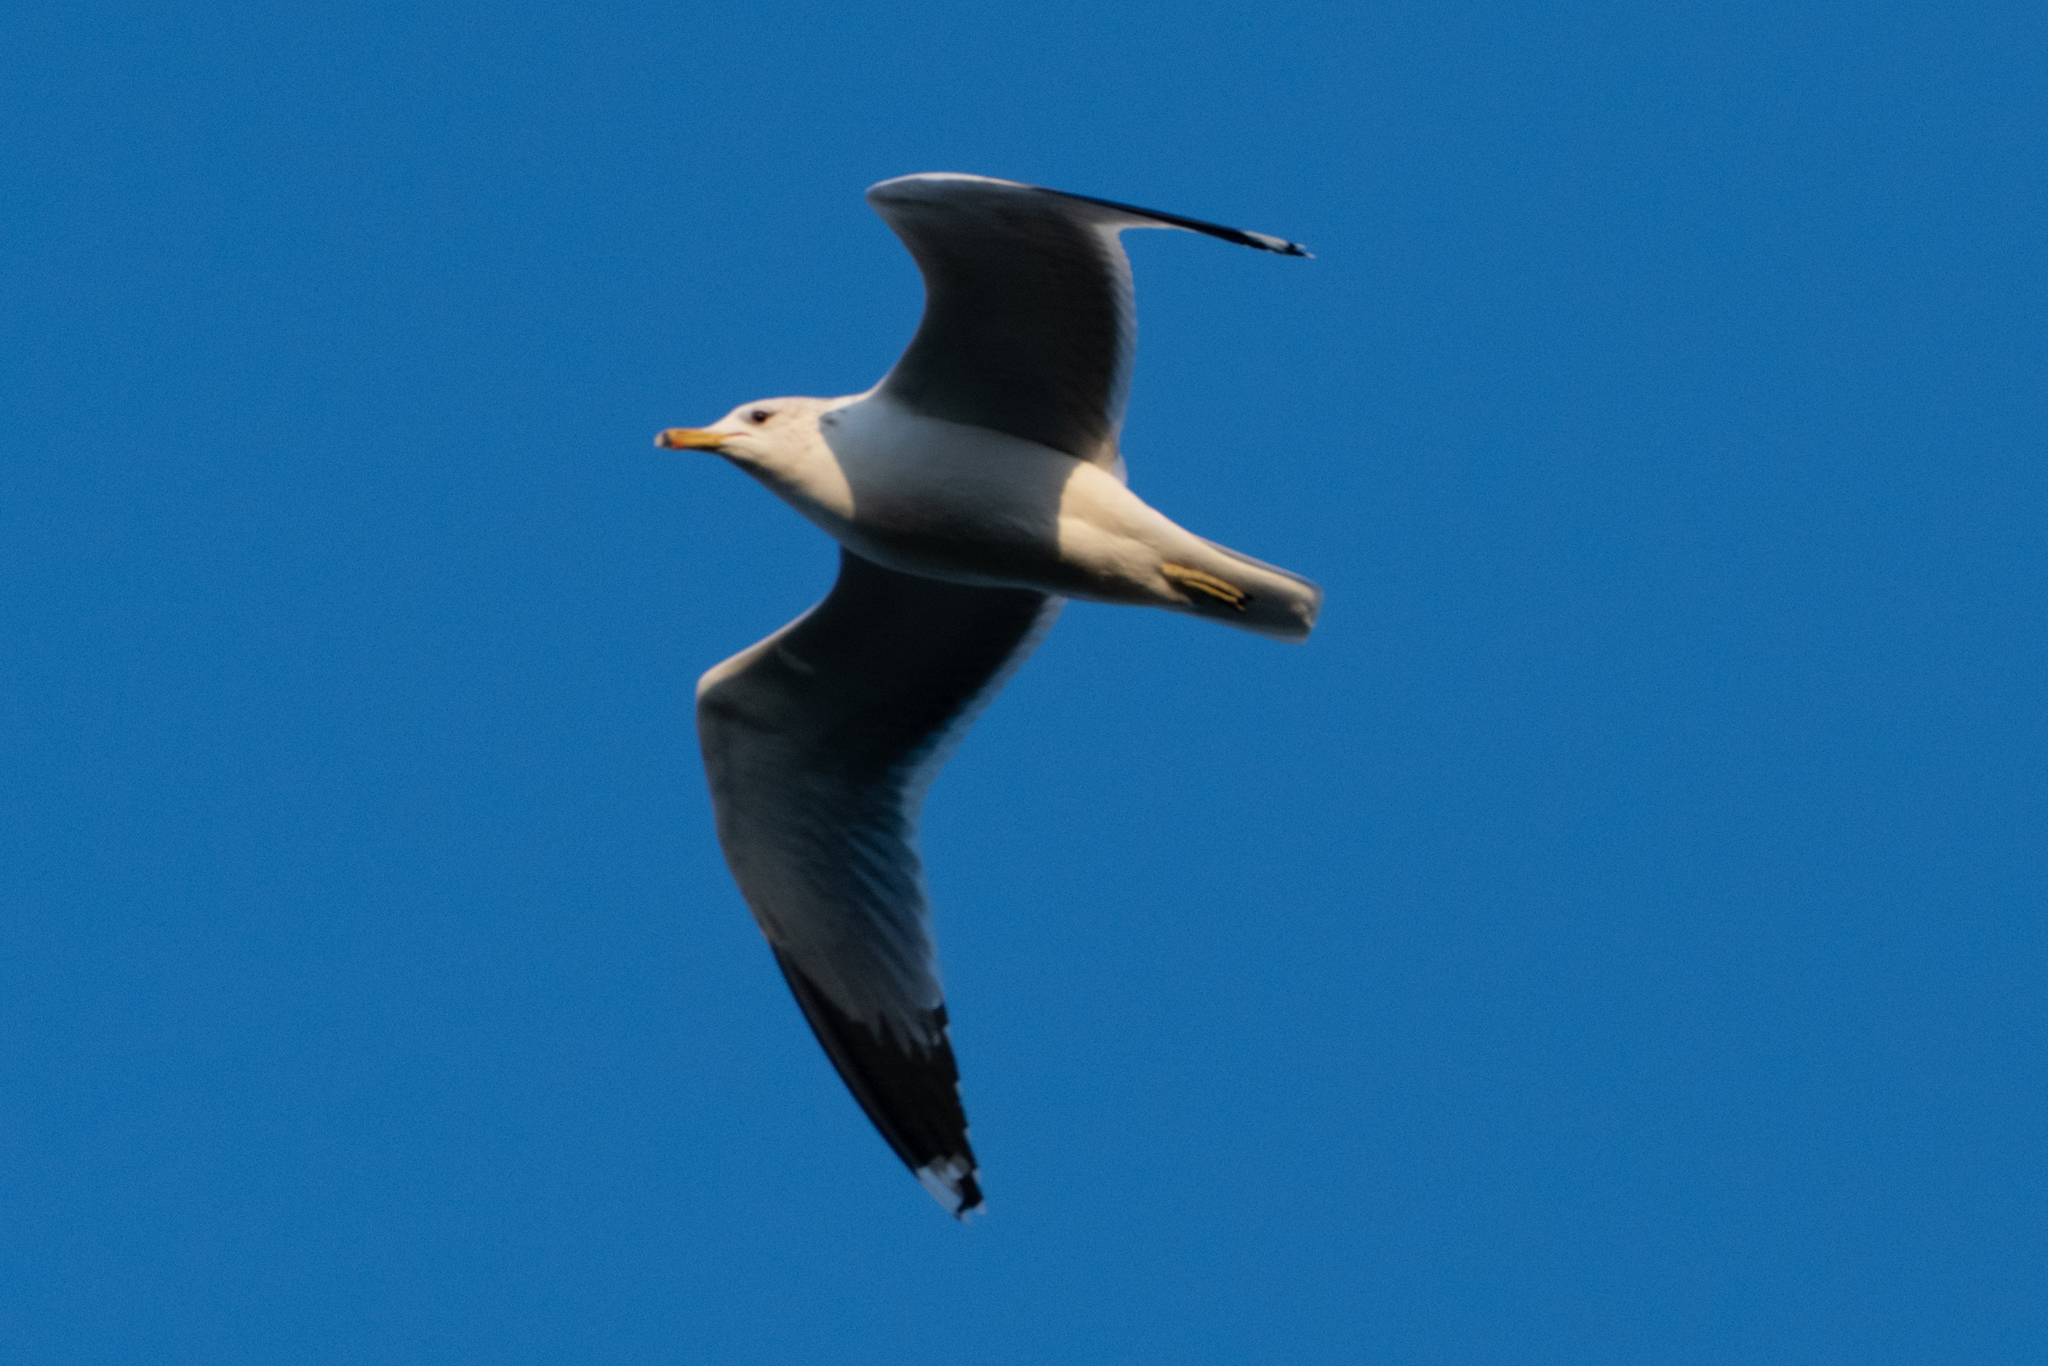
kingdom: Animalia
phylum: Chordata
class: Aves
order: Charadriiformes
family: Laridae
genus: Larus
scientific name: Larus californicus
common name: California gull
